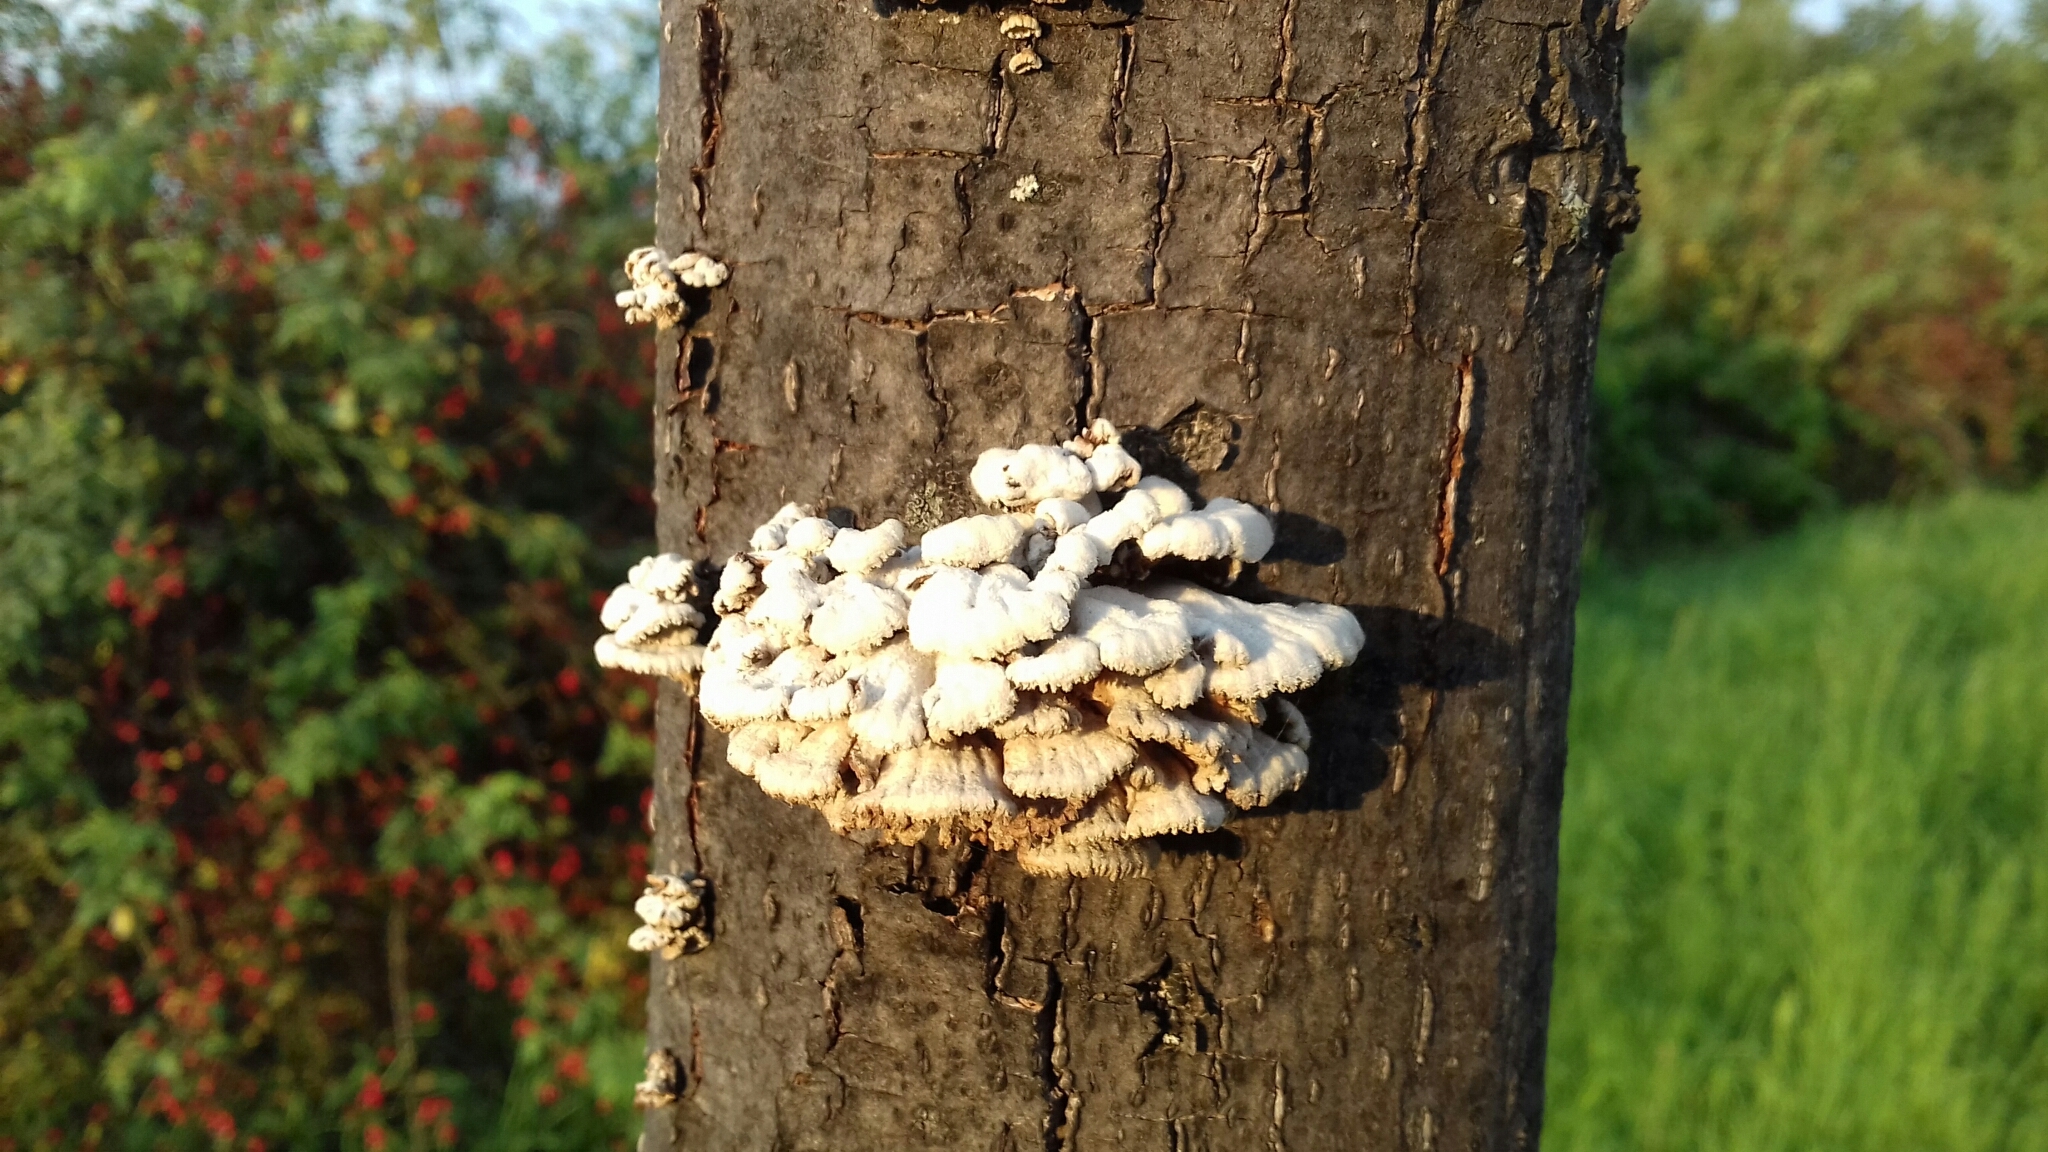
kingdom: Fungi
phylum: Basidiomycota
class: Agaricomycetes
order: Agaricales
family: Schizophyllaceae
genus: Schizophyllum
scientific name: Schizophyllum commune
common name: Common porecrust
